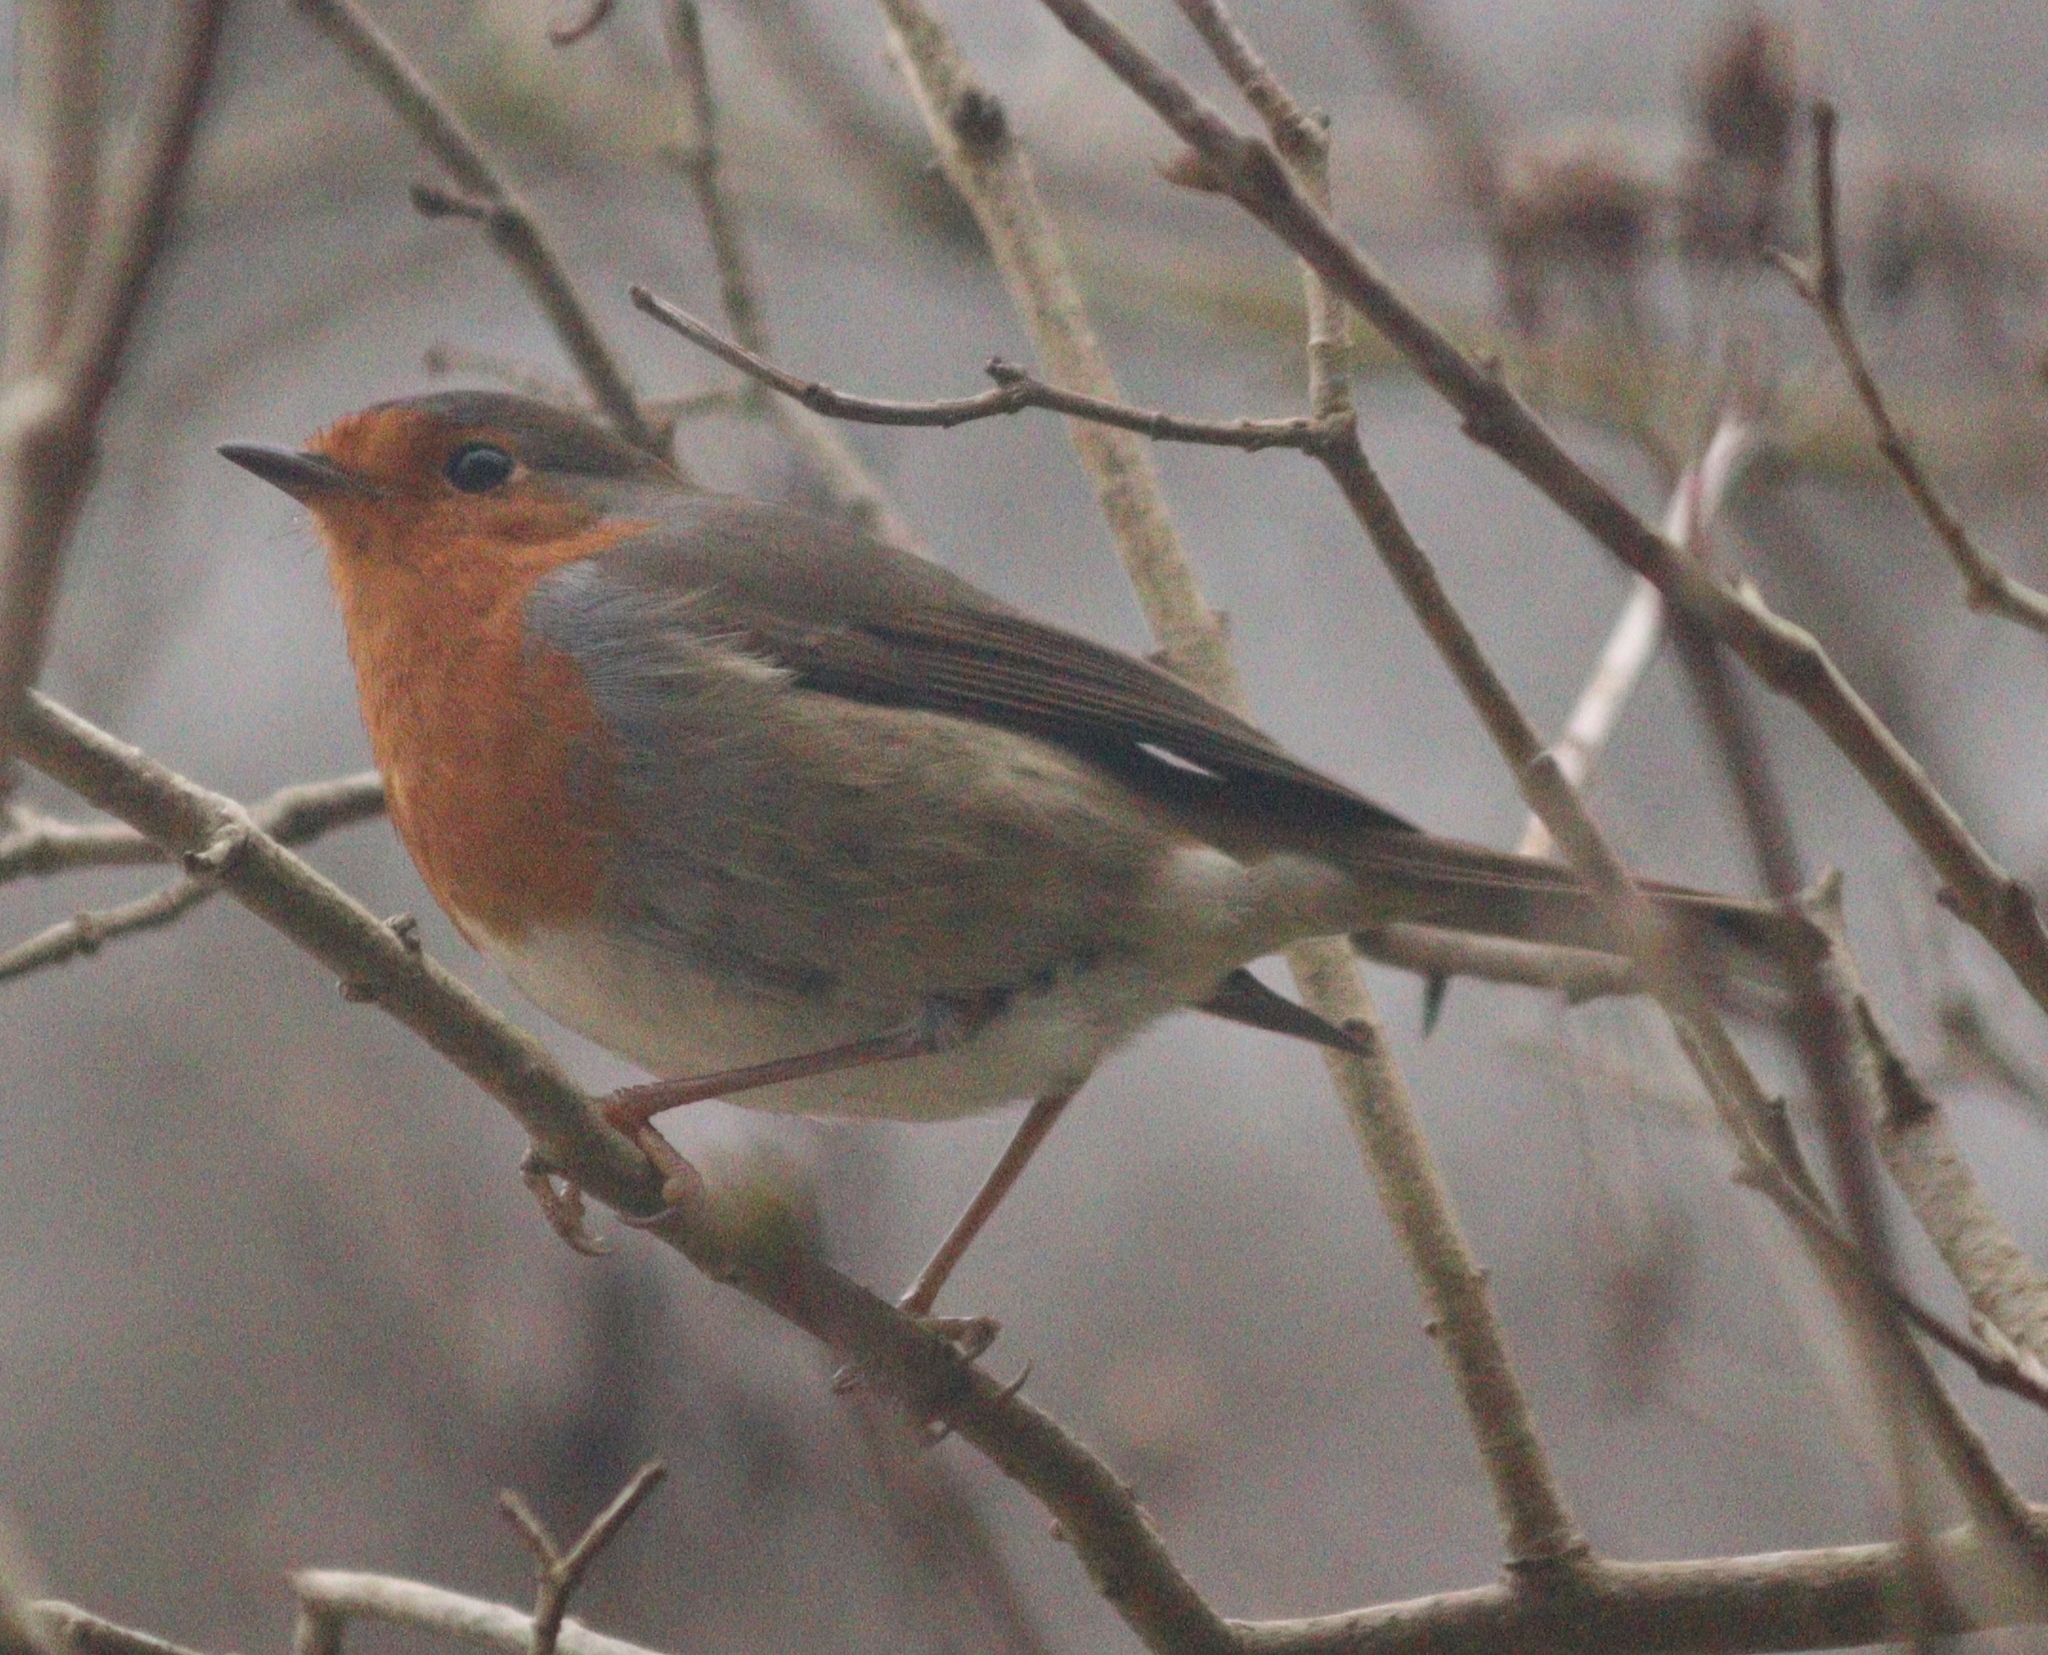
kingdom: Animalia
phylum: Chordata
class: Aves
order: Passeriformes
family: Muscicapidae
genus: Erithacus
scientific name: Erithacus rubecula
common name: European robin
